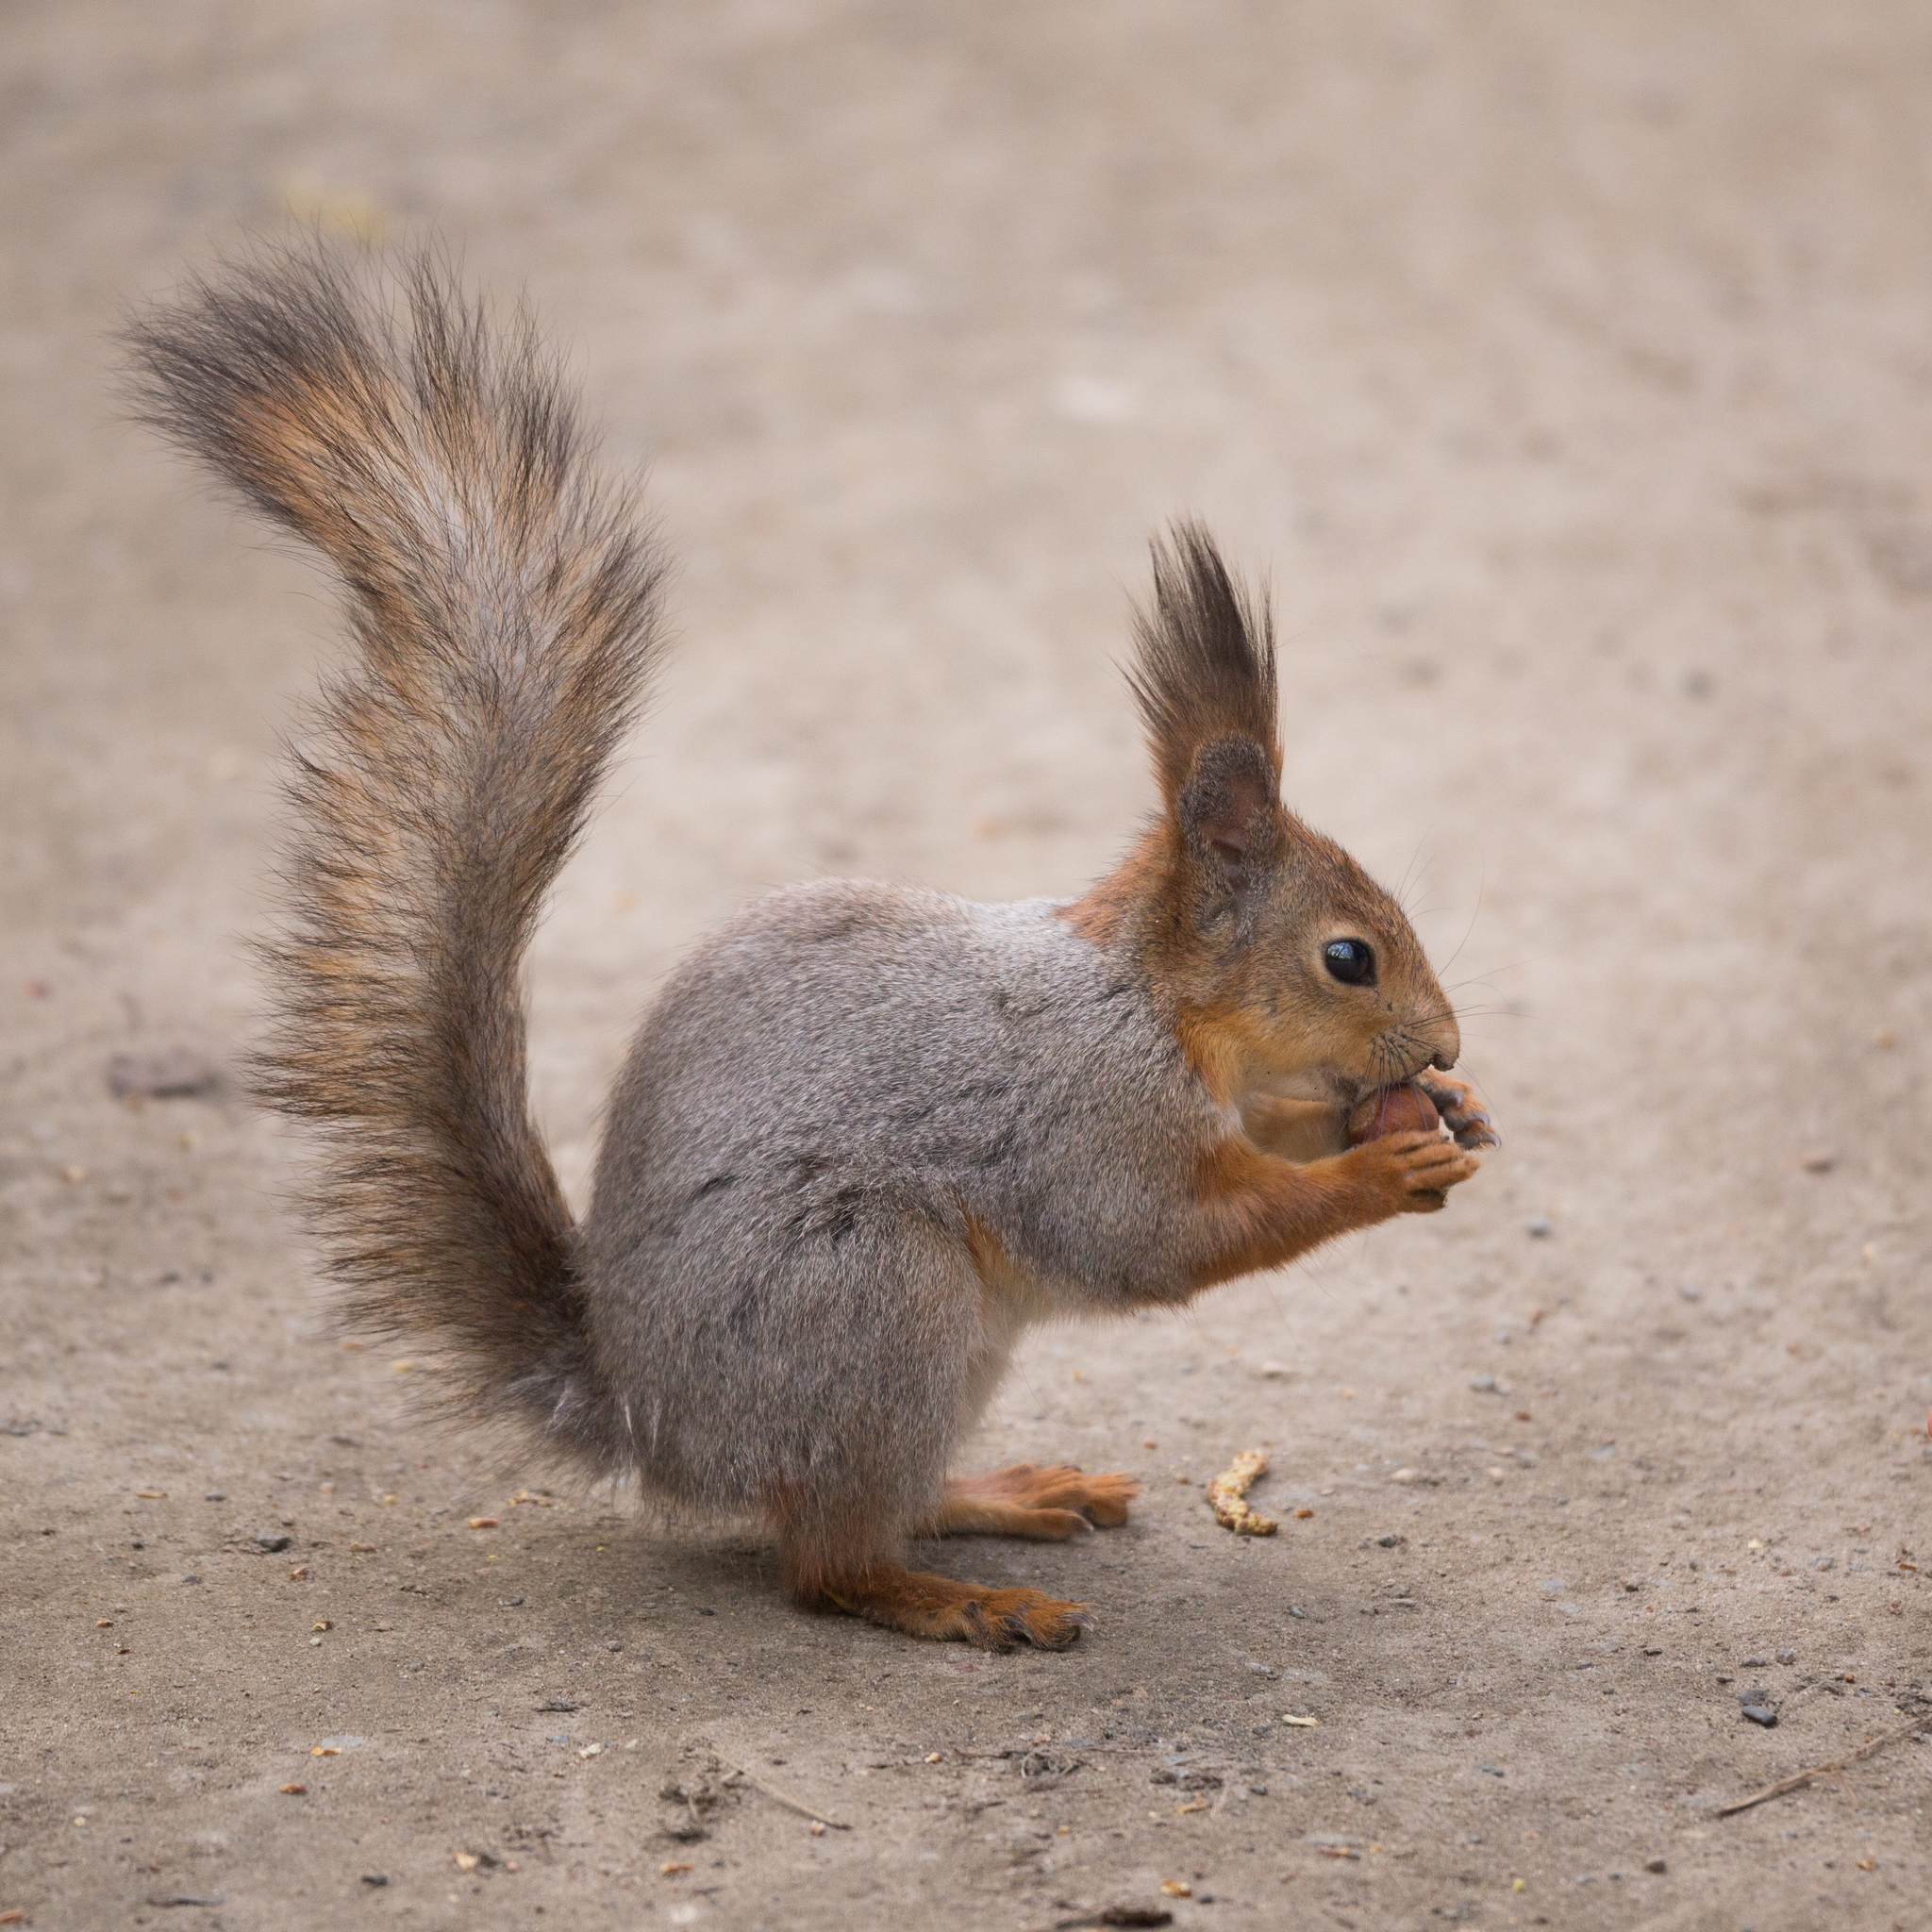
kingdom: Animalia
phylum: Chordata
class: Mammalia
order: Rodentia
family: Sciuridae
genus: Sciurus
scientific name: Sciurus vulgaris
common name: Eurasian red squirrel
